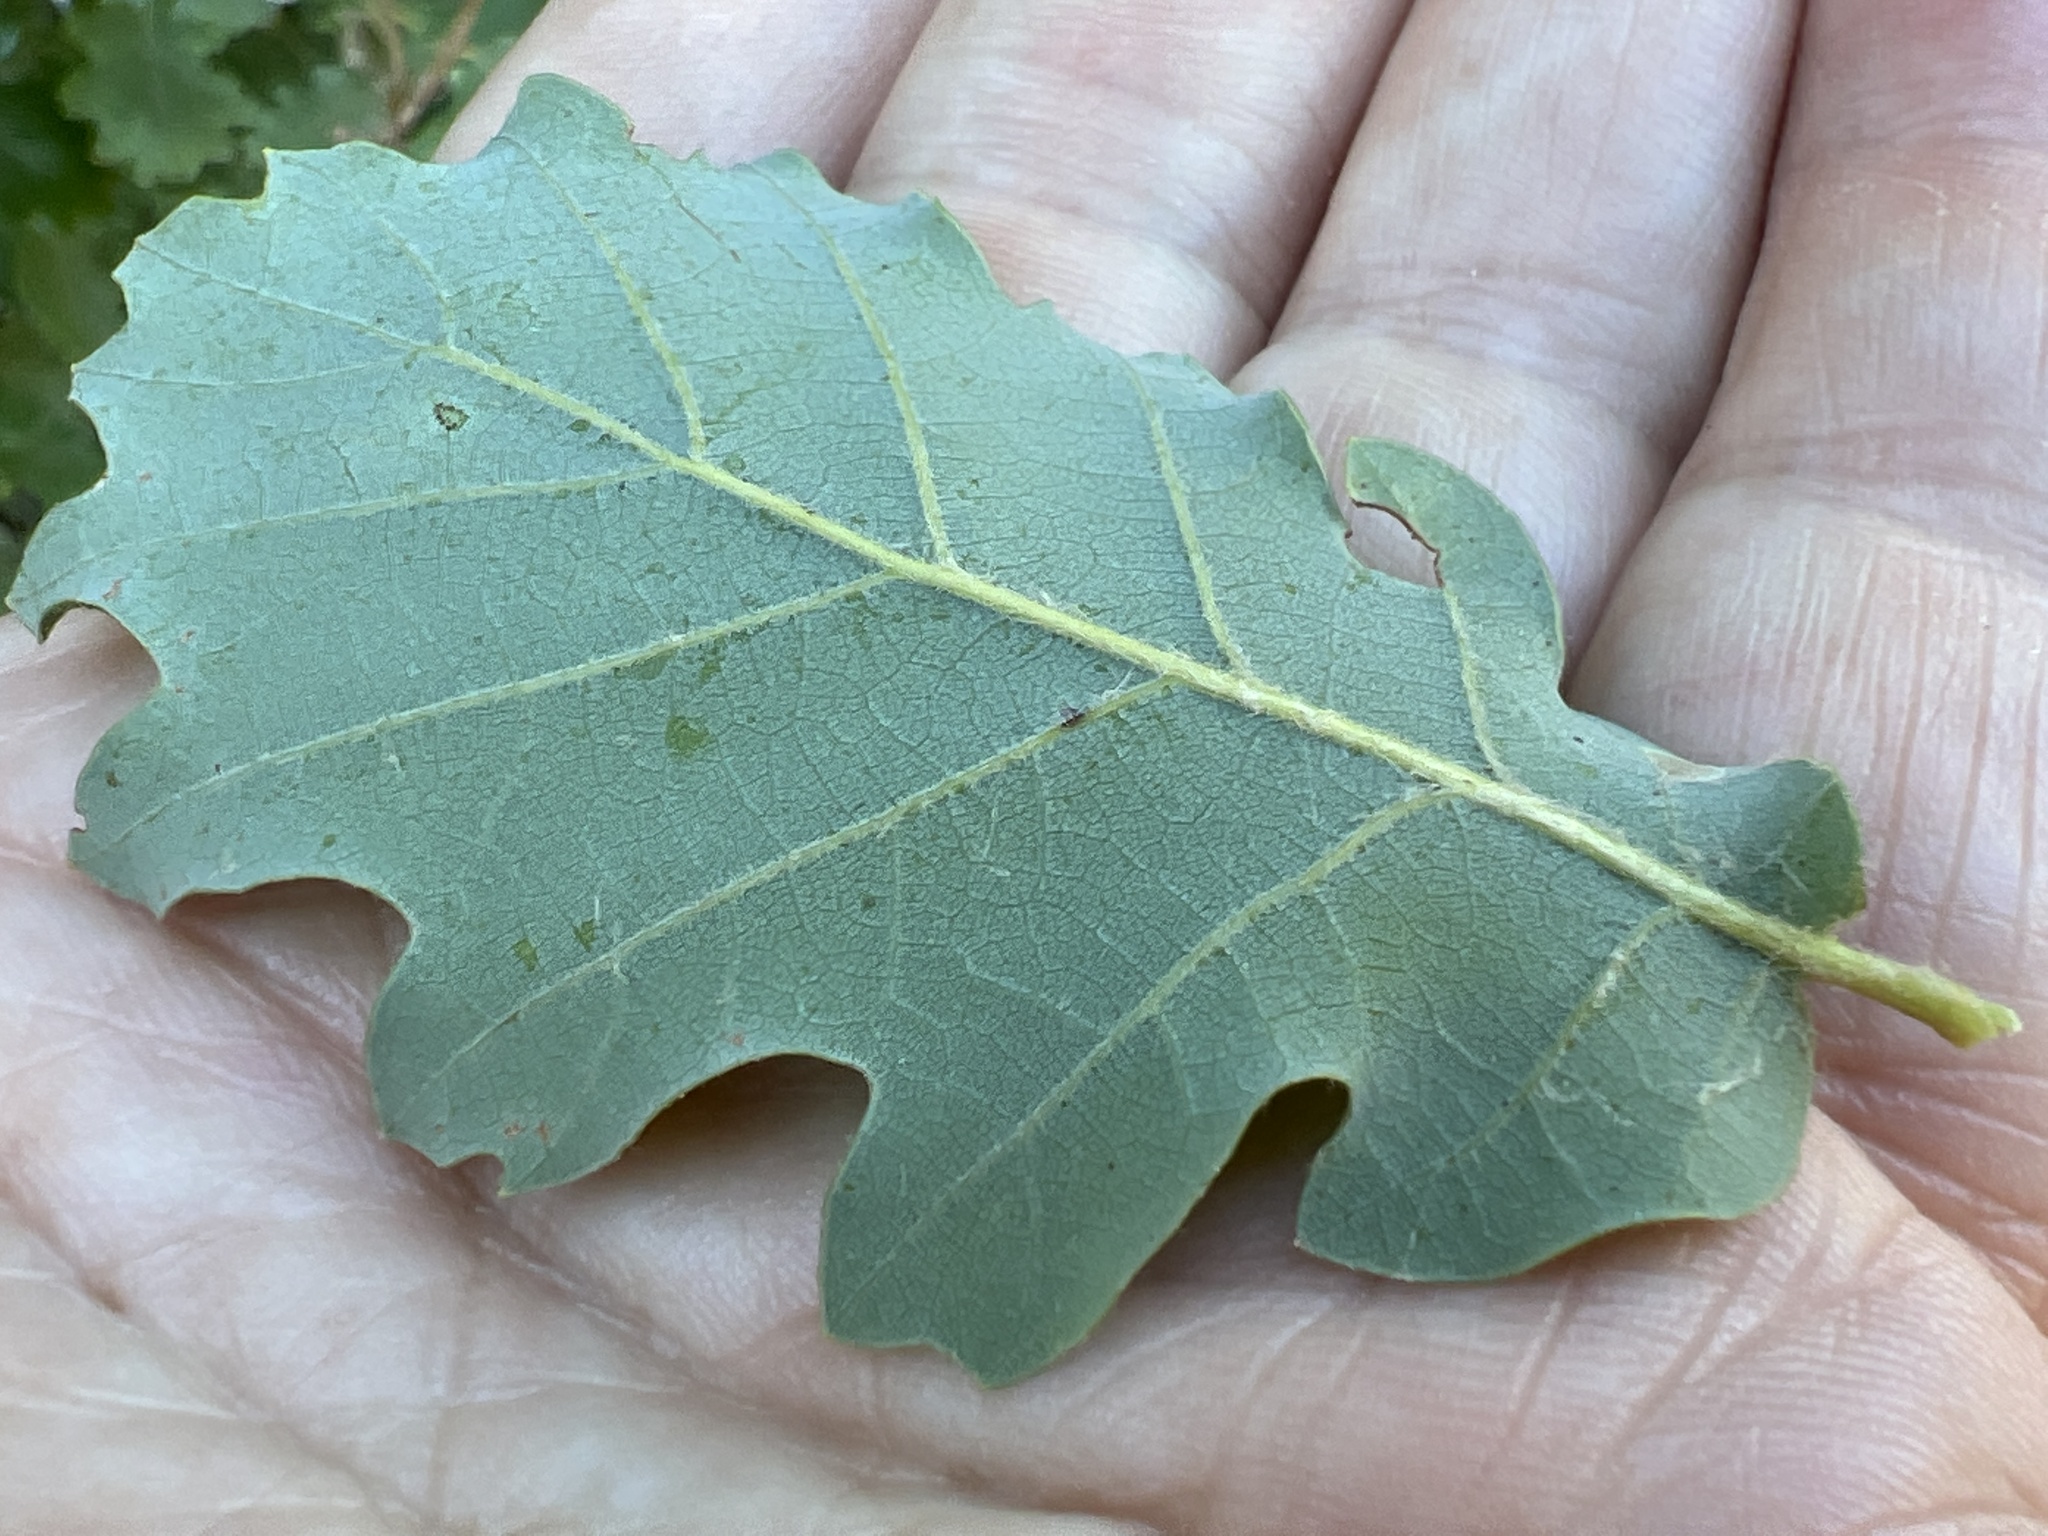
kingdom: Plantae
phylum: Tracheophyta
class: Magnoliopsida
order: Fagales
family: Fagaceae
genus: Quercus
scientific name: Quercus pubescens
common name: Downy oak
